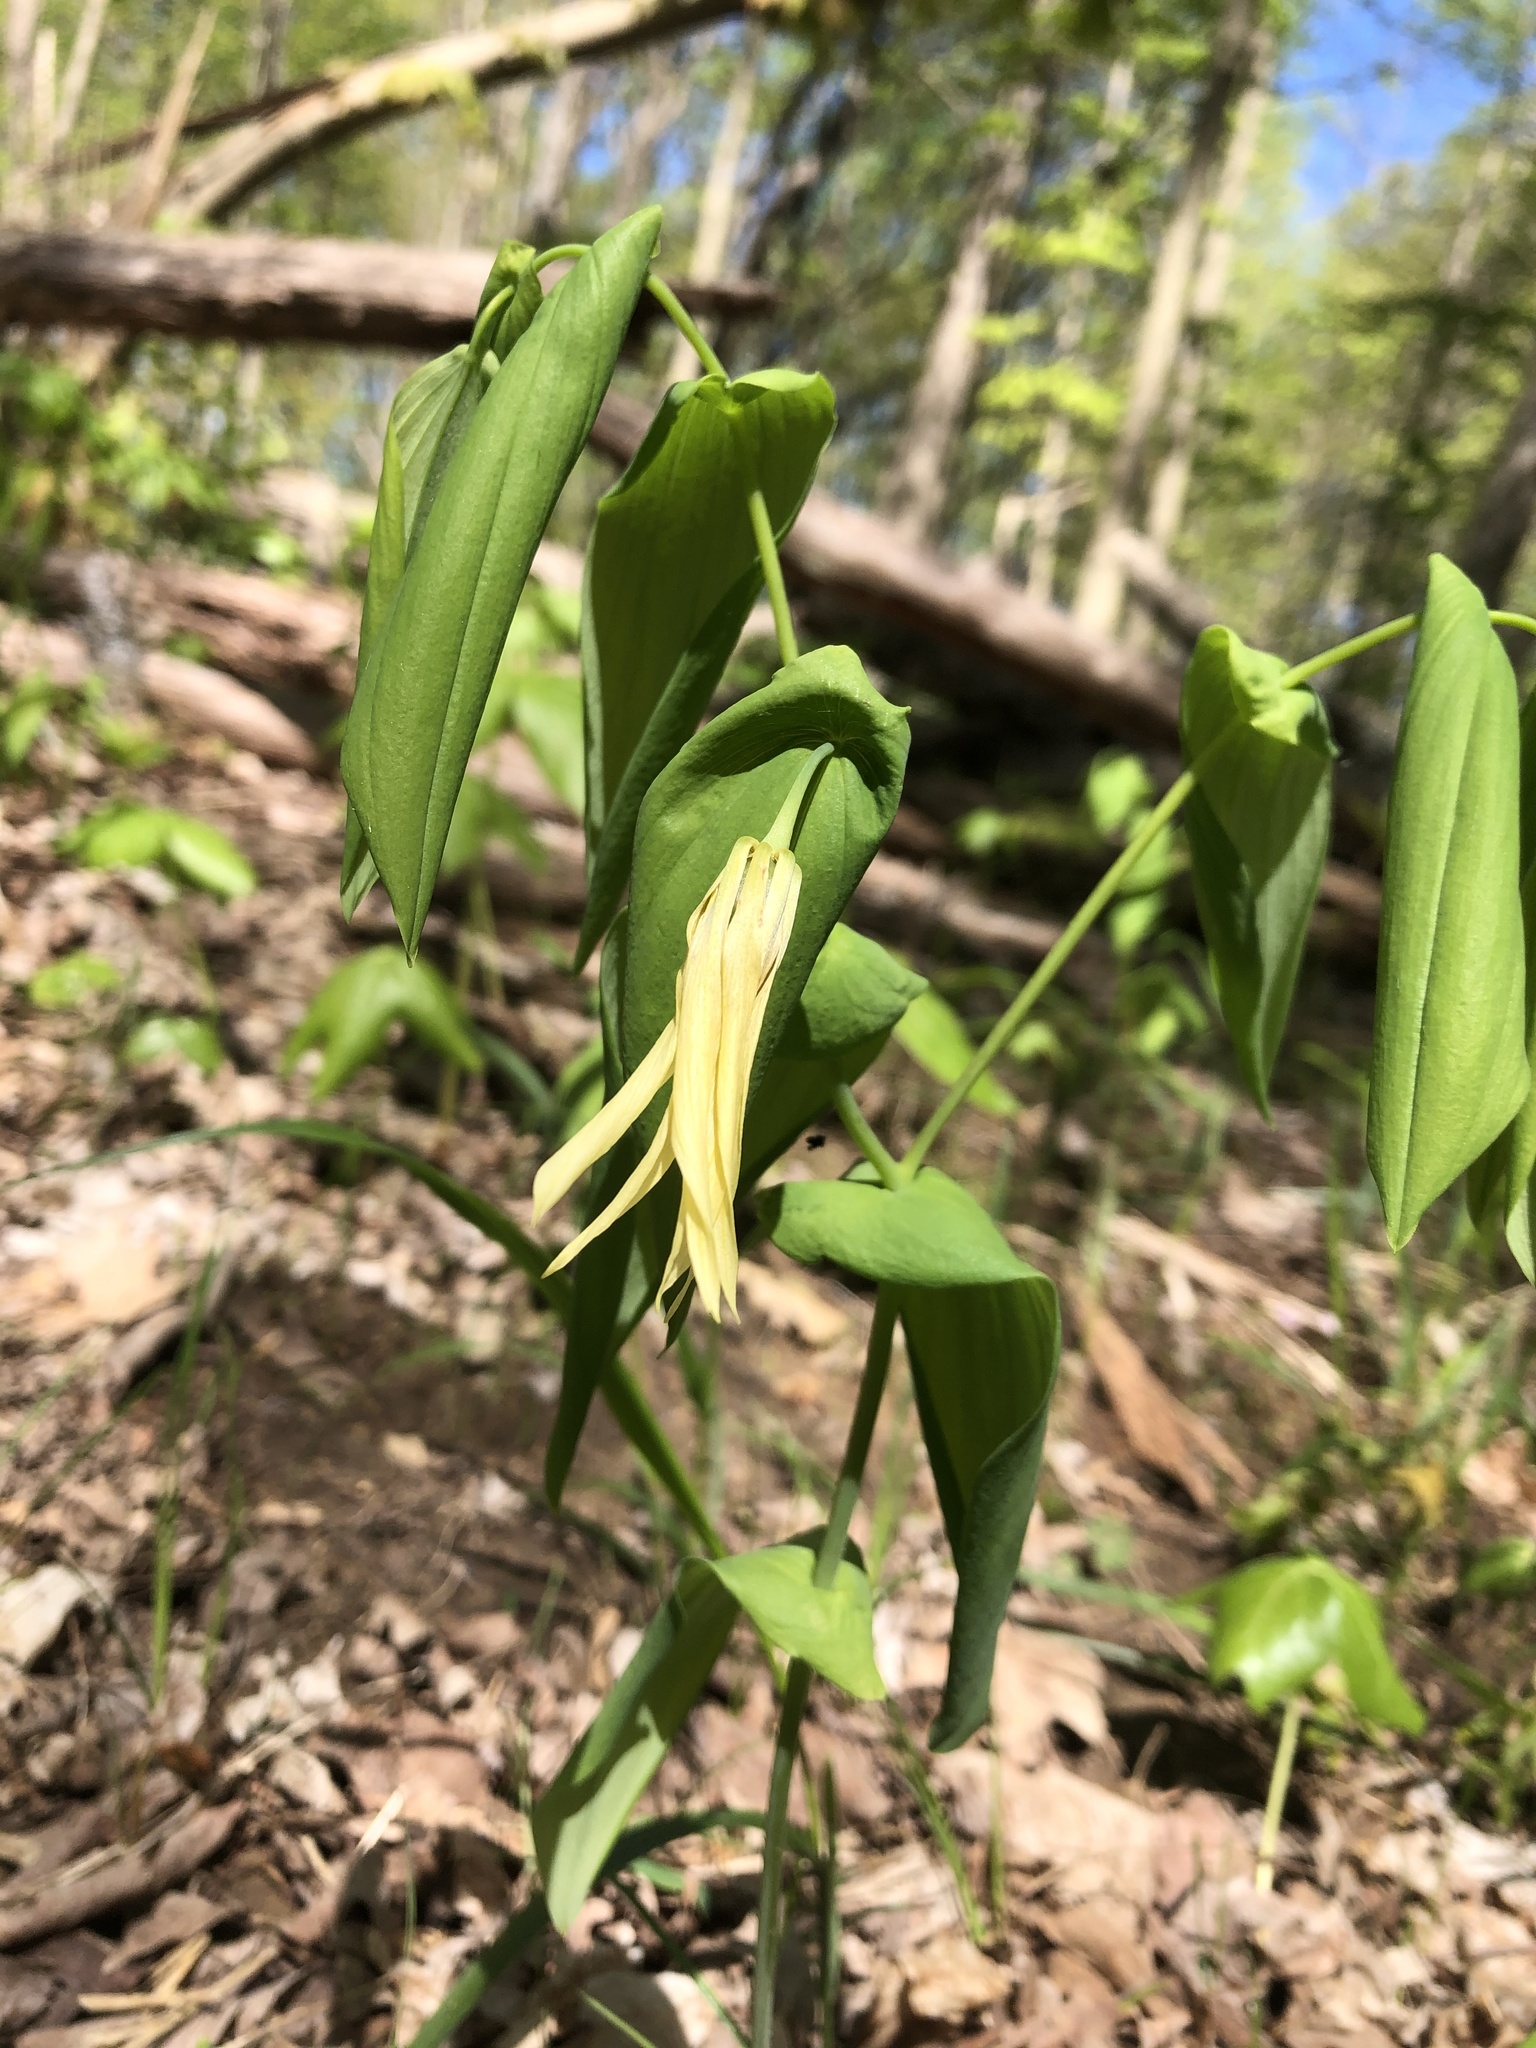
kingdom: Plantae
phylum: Tracheophyta
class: Liliopsida
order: Liliales
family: Colchicaceae
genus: Uvularia
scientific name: Uvularia grandiflora
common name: Bellwort
